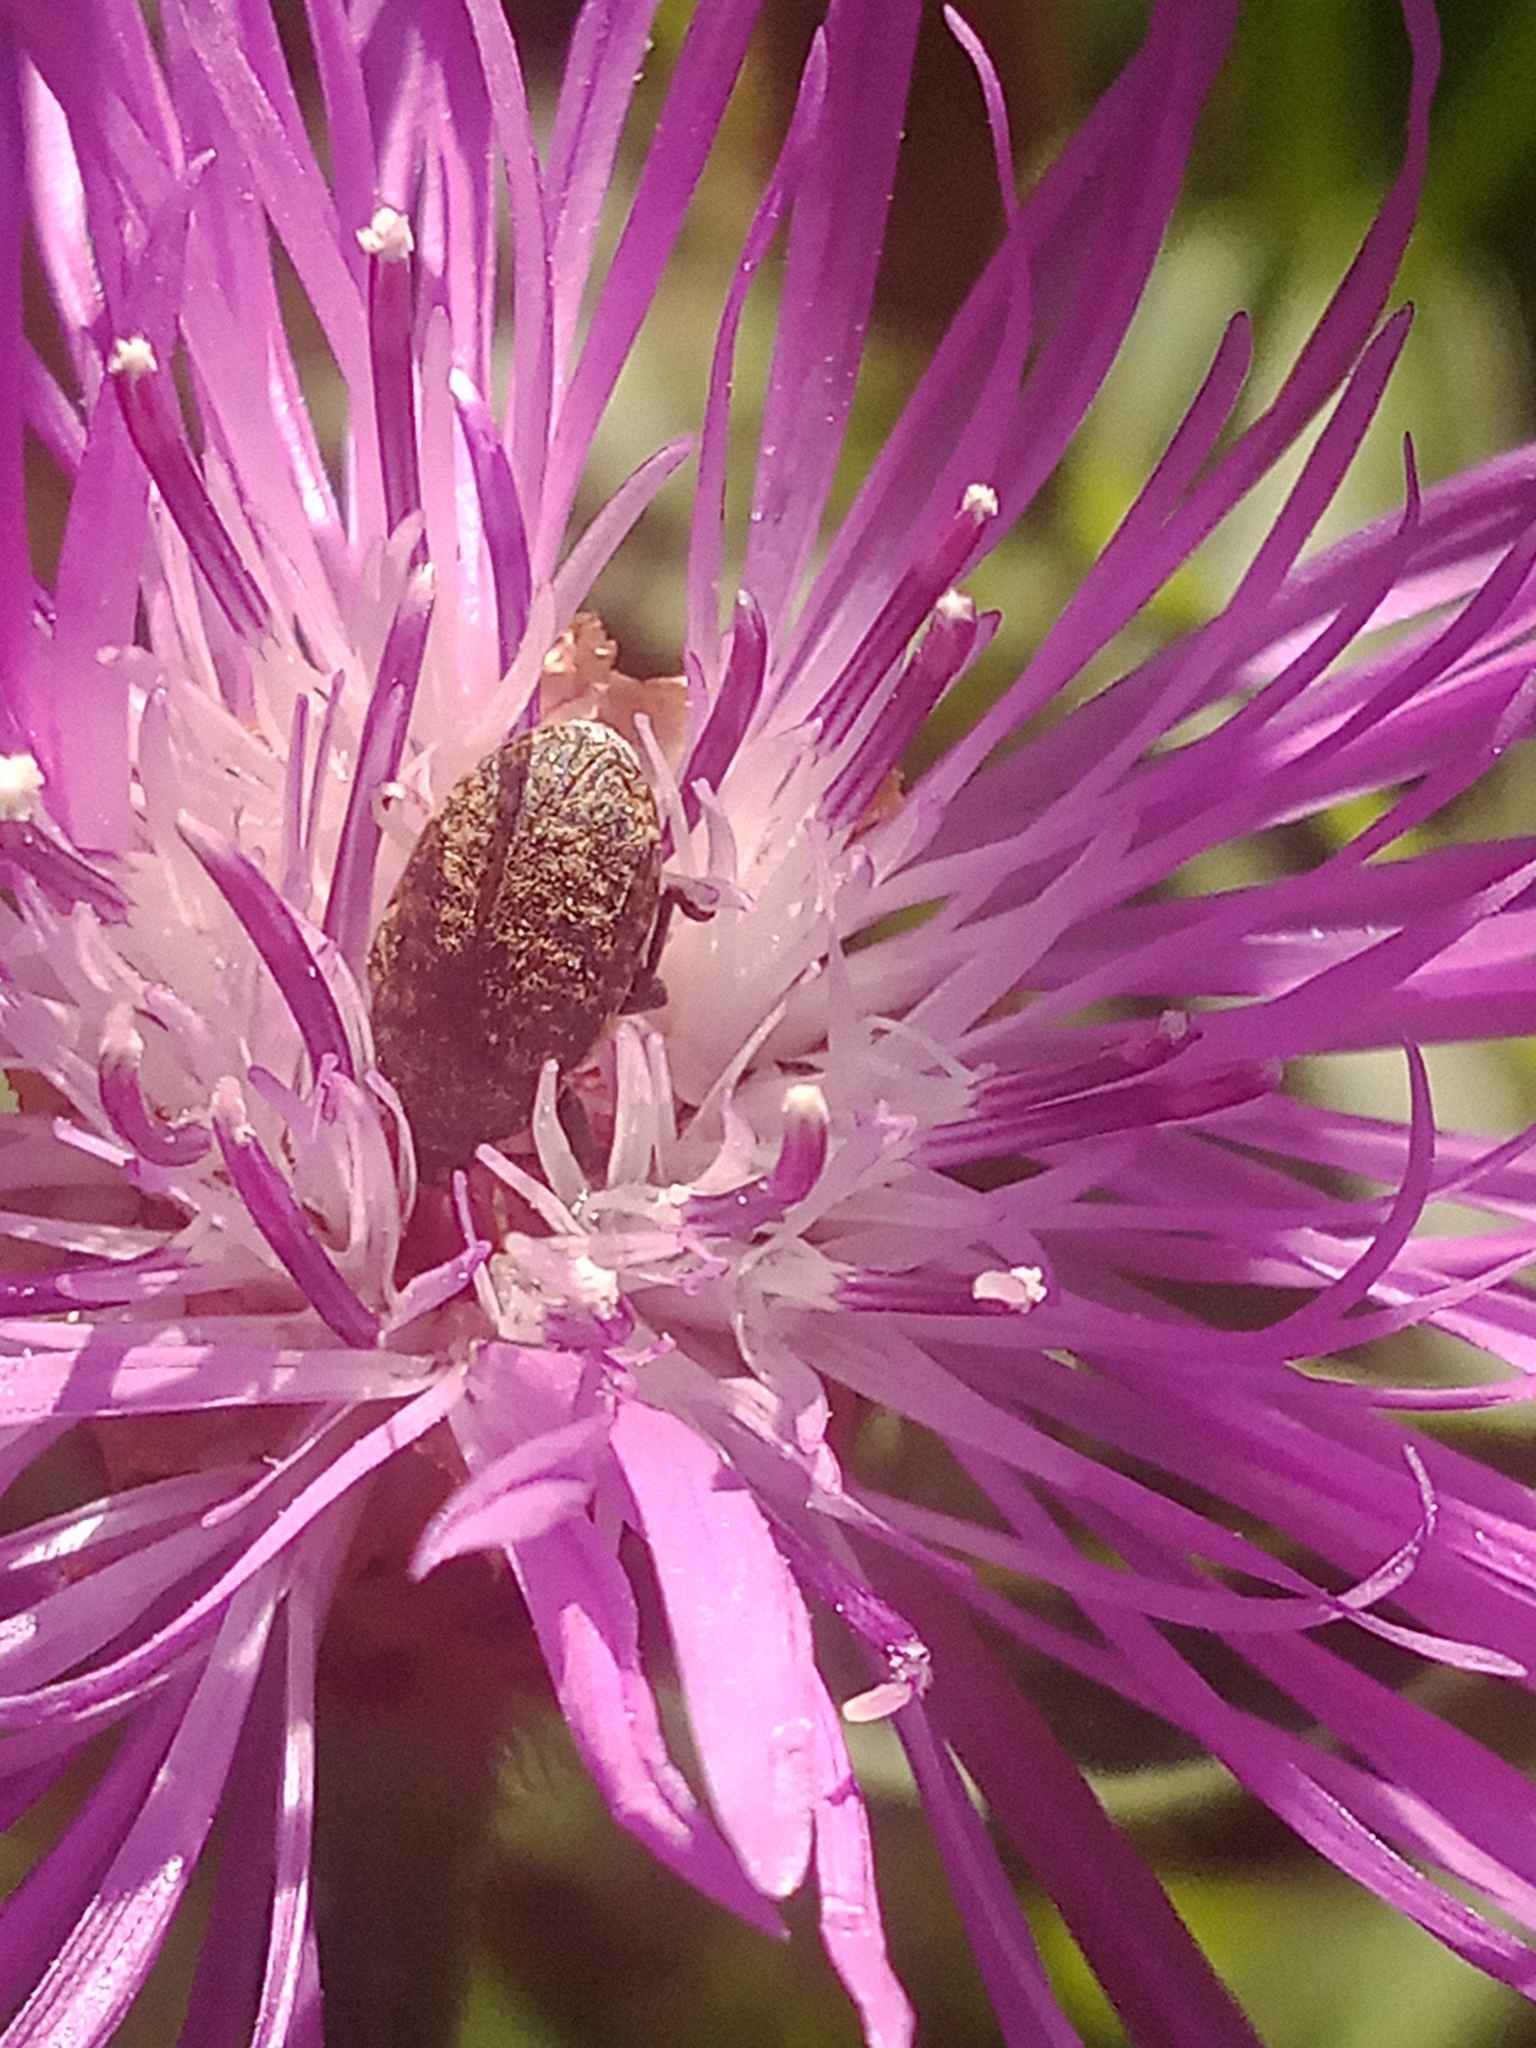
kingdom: Animalia
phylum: Arthropoda
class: Insecta
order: Coleoptera
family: Curculionidae
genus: Larinus
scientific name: Larinus obtusus
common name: Weevil
